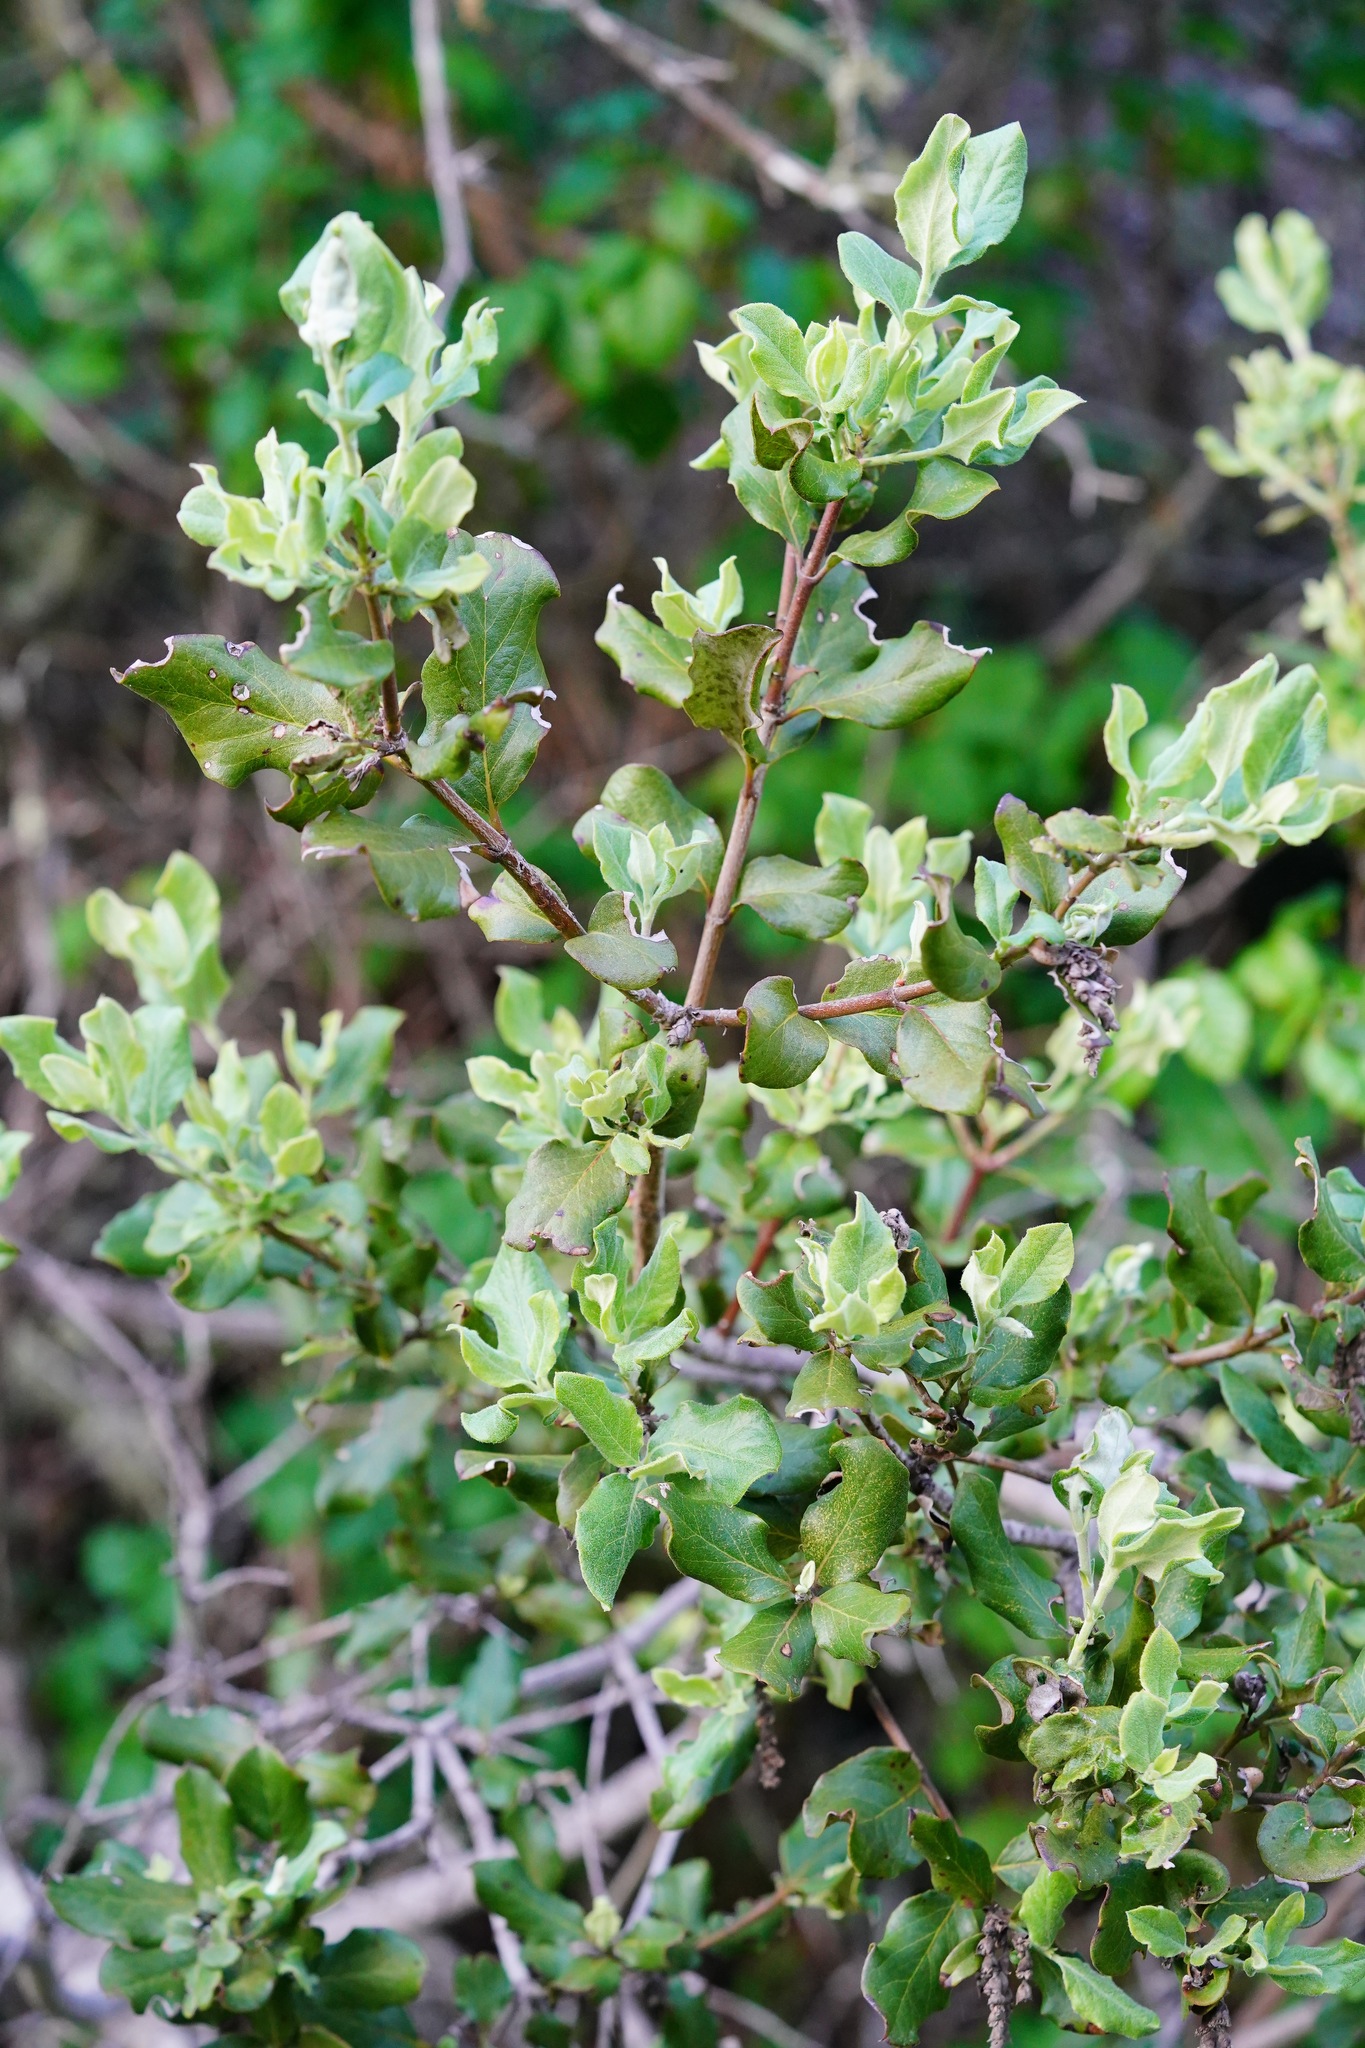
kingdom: Plantae
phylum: Tracheophyta
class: Magnoliopsida
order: Garryales
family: Garryaceae
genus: Garrya
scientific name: Garrya elliptica
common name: Silk-tassel
